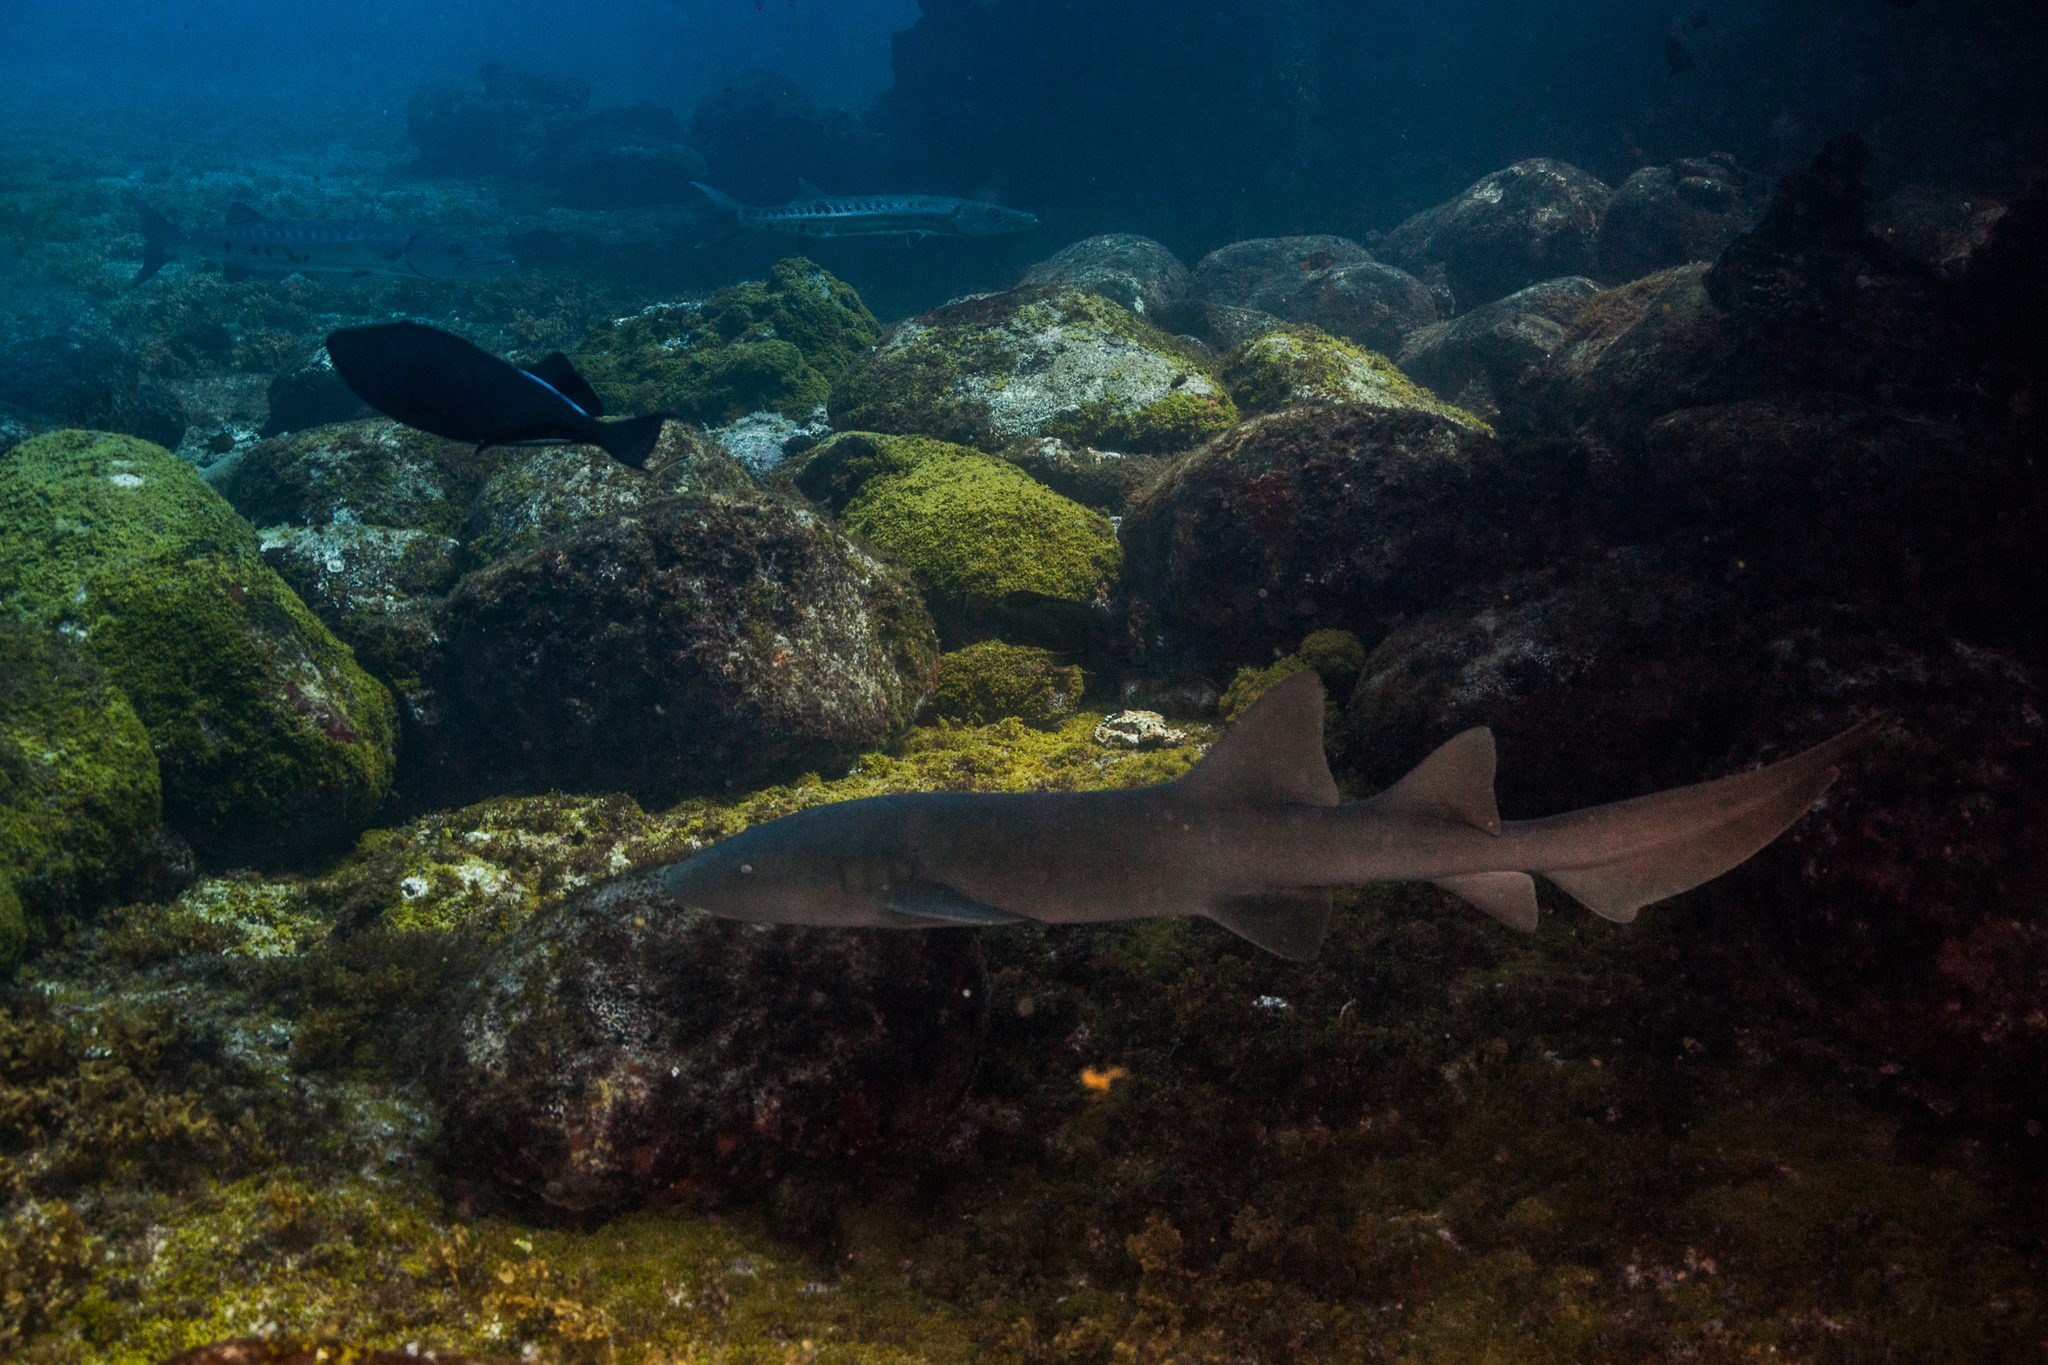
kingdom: Animalia
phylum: Chordata
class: Elasmobranchii
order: Orectolobiformes
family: Ginglymostomatidae
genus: Ginglymostoma
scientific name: Ginglymostoma cirratum
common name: Nurse shark
